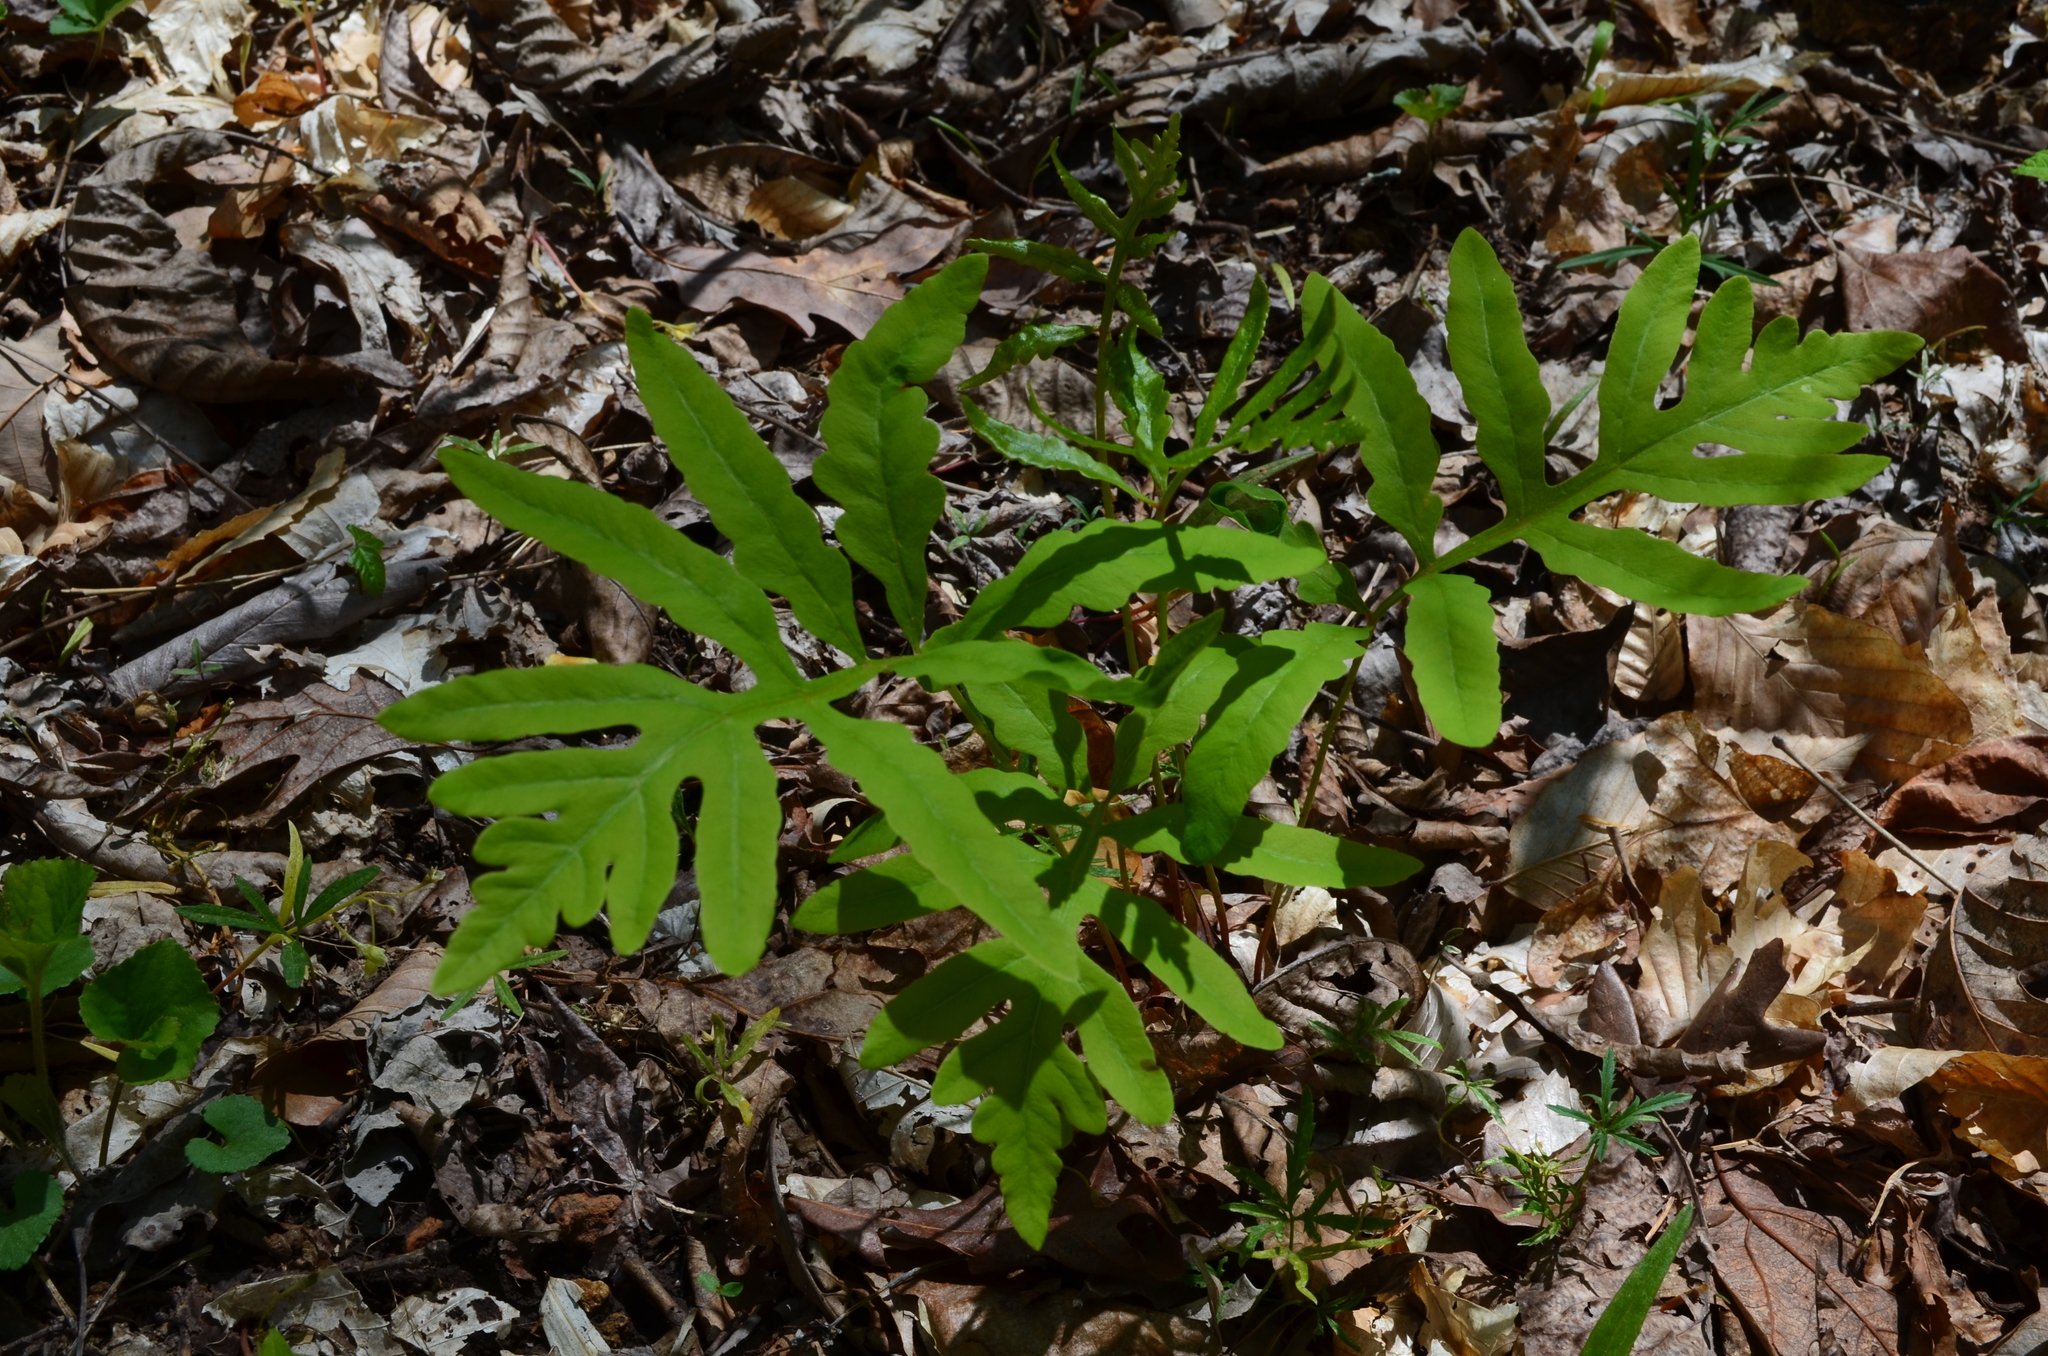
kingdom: Plantae
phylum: Tracheophyta
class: Polypodiopsida
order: Polypodiales
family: Onocleaceae
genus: Onoclea
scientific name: Onoclea sensibilis
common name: Sensitive fern
